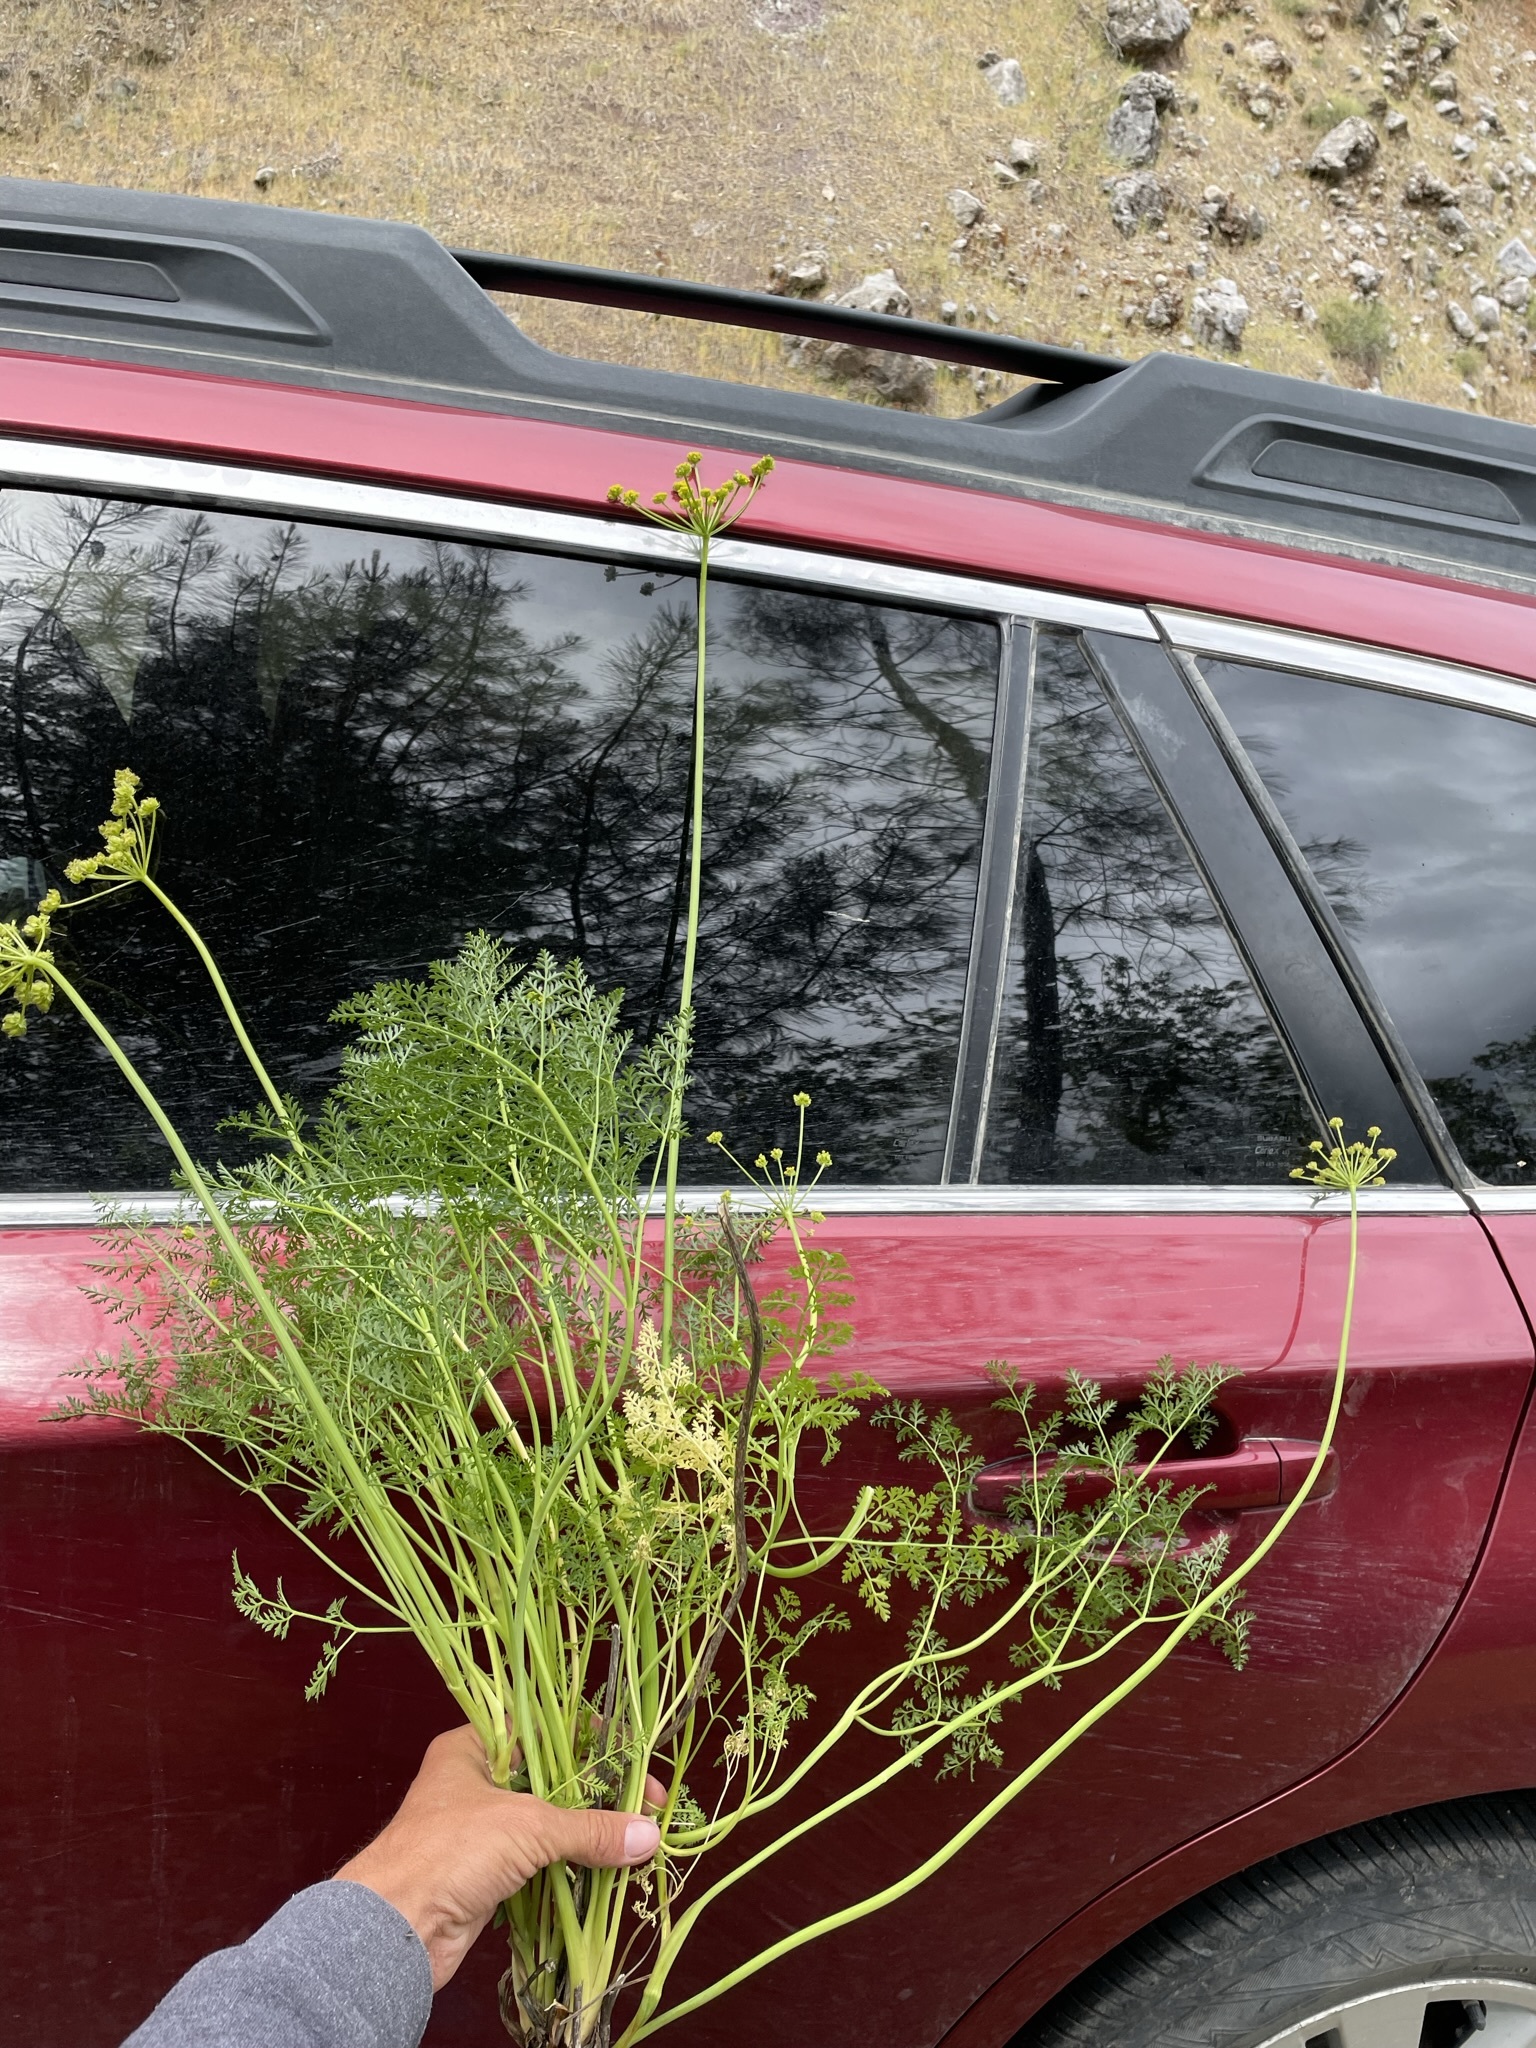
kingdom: Plantae
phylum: Tracheophyta
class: Magnoliopsida
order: Apiales
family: Apiaceae
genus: Pteryxia
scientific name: Pteryxia terebinthina
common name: Turpentine wavewing
